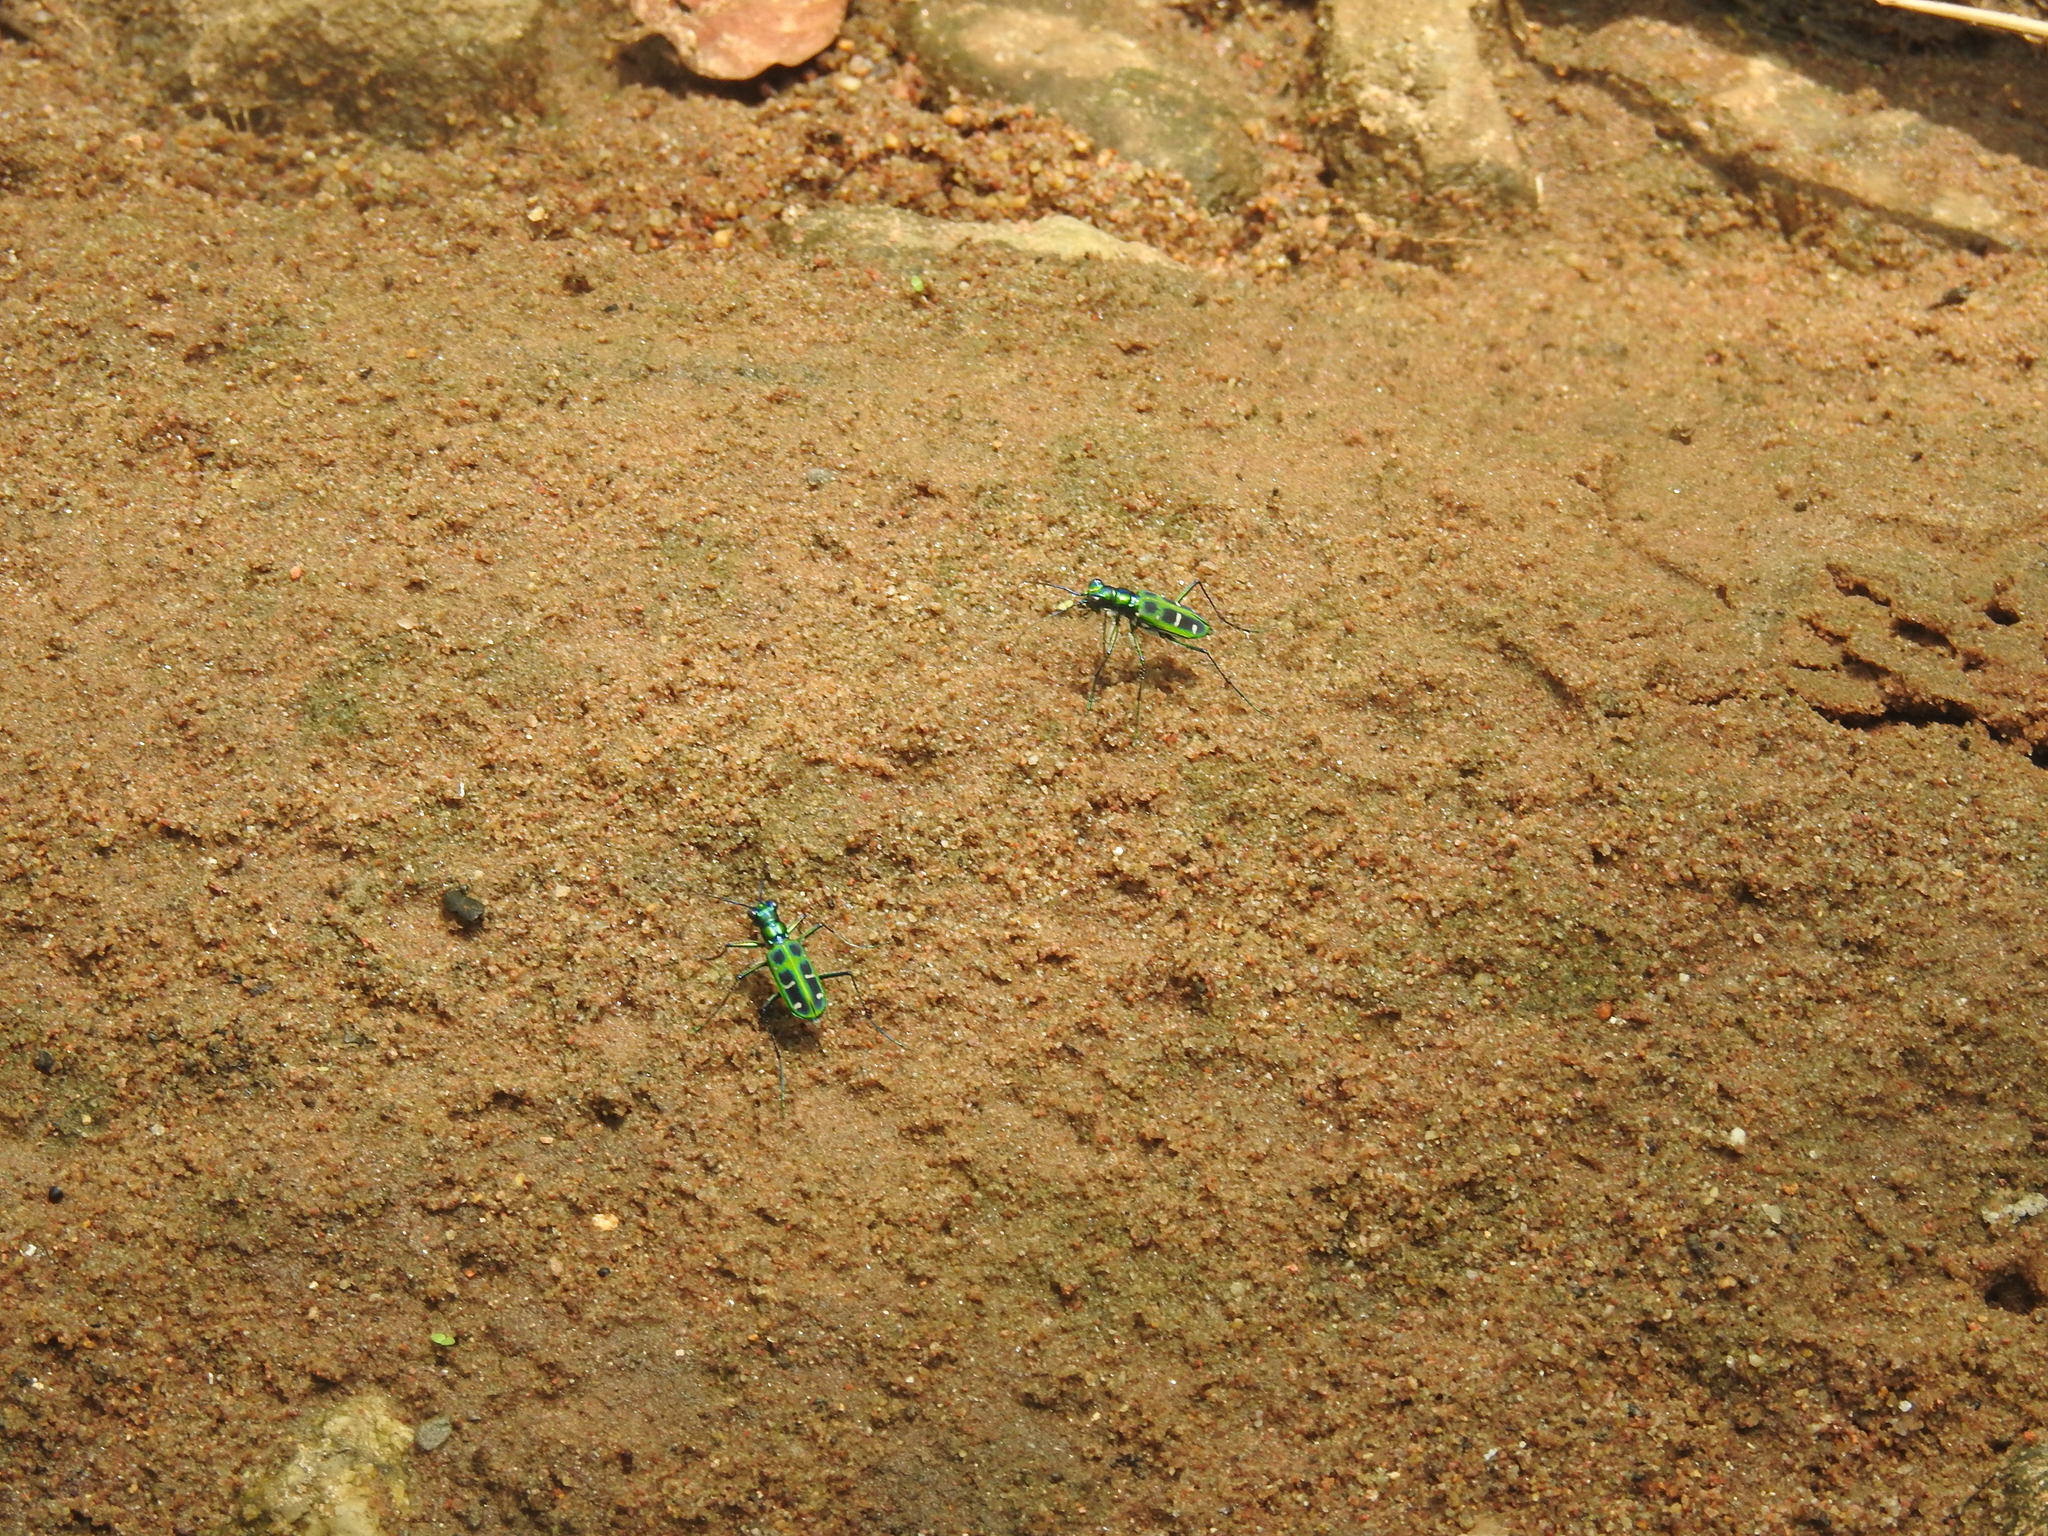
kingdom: Animalia
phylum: Arthropoda
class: Insecta
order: Coleoptera
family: Carabidae
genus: Cicindela
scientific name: Cicindela barmanica
